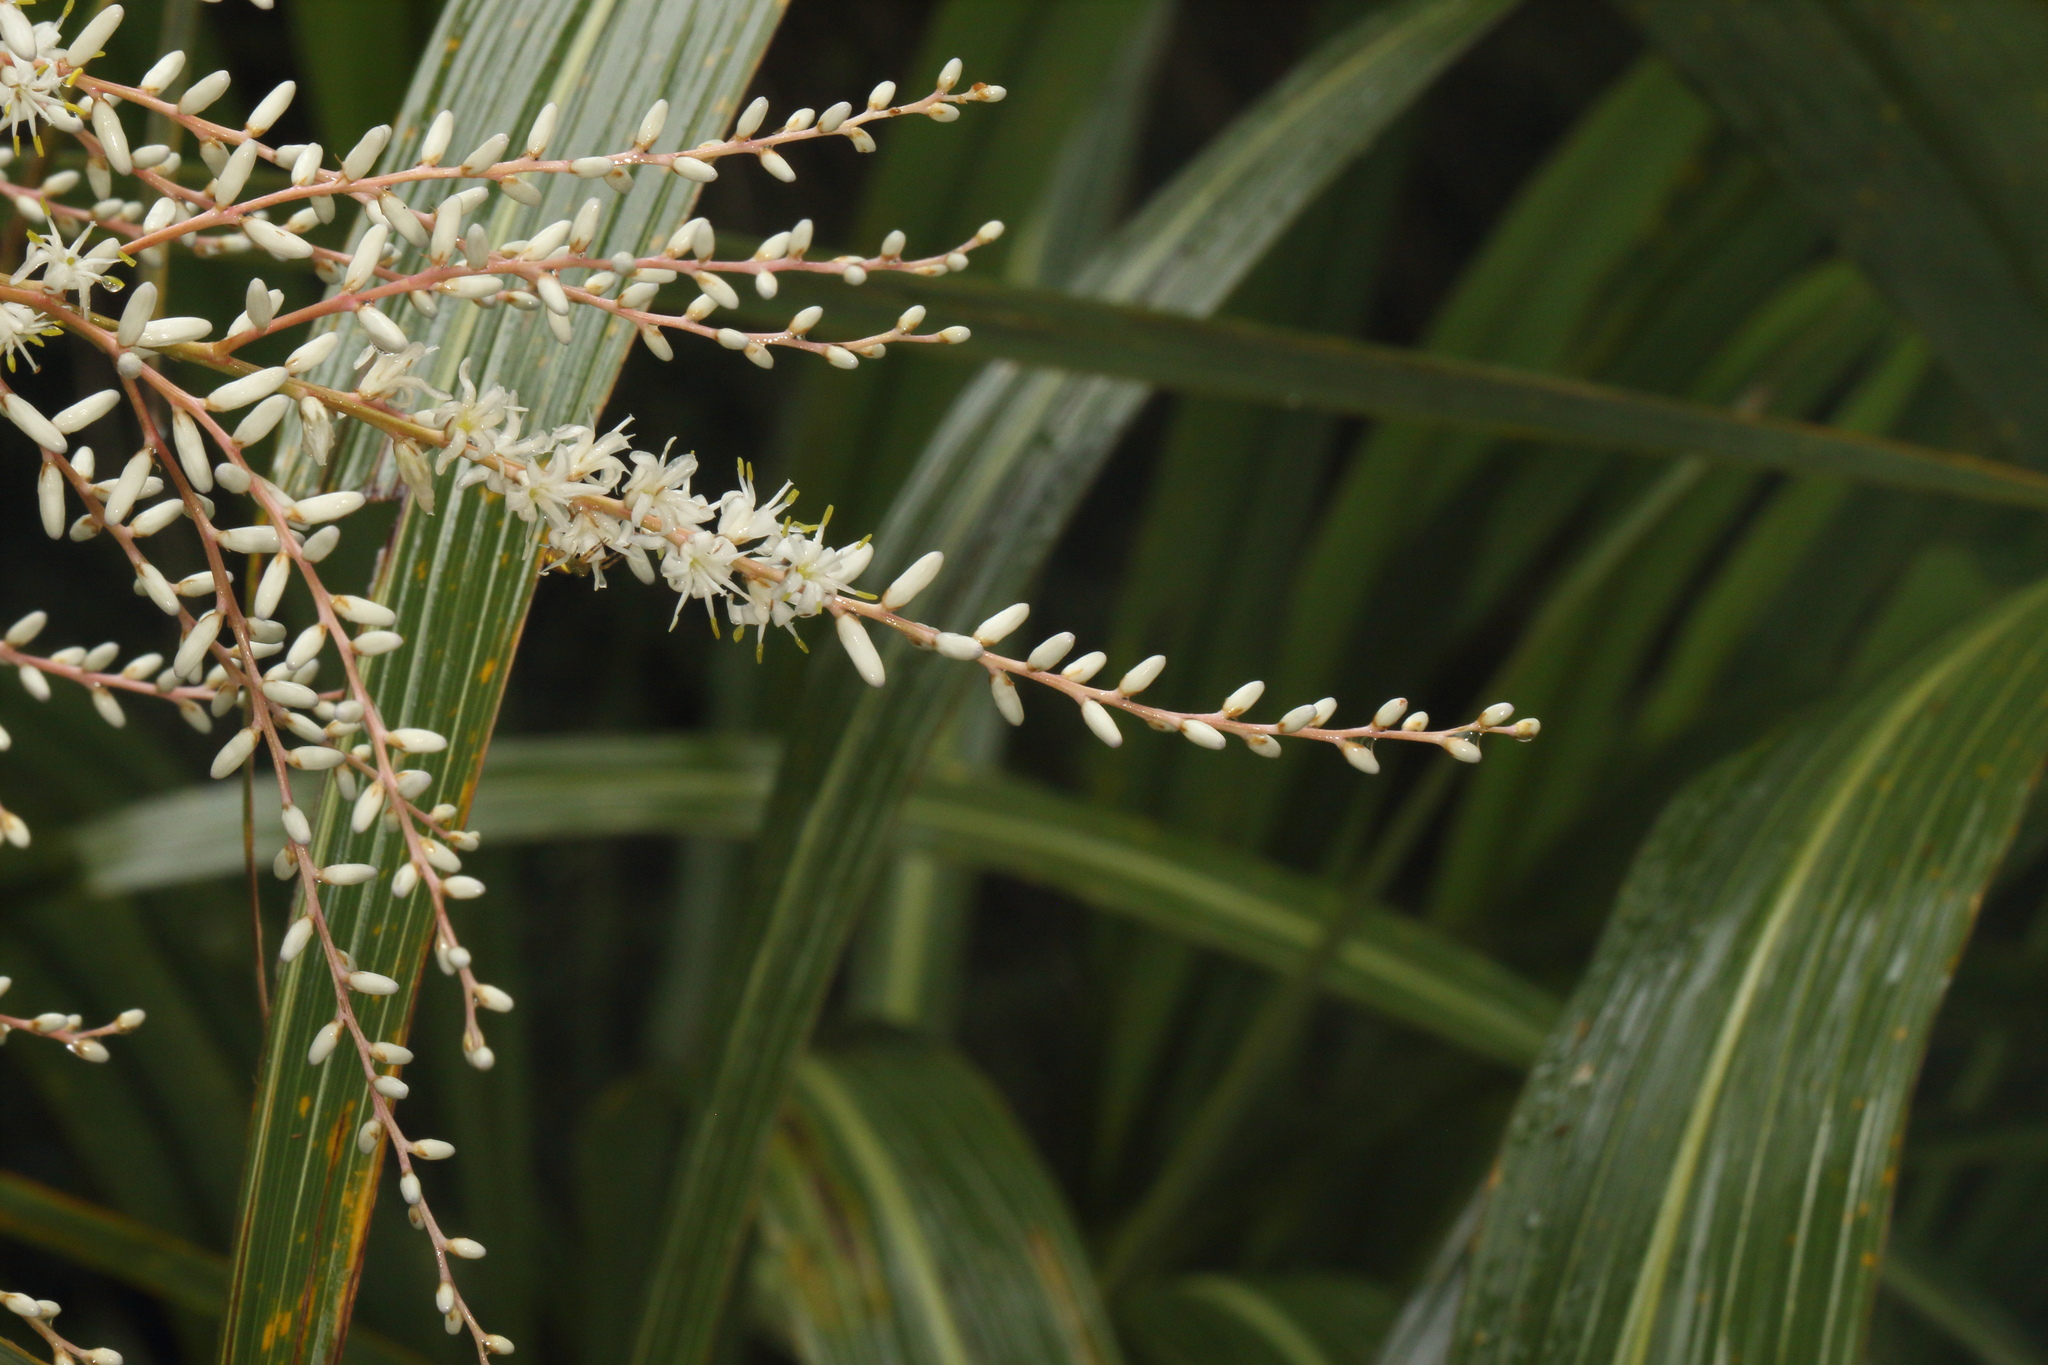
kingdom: Plantae
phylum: Tracheophyta
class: Liliopsida
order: Asparagales
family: Asparagaceae
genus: Cordyline
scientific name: Cordyline banksii
